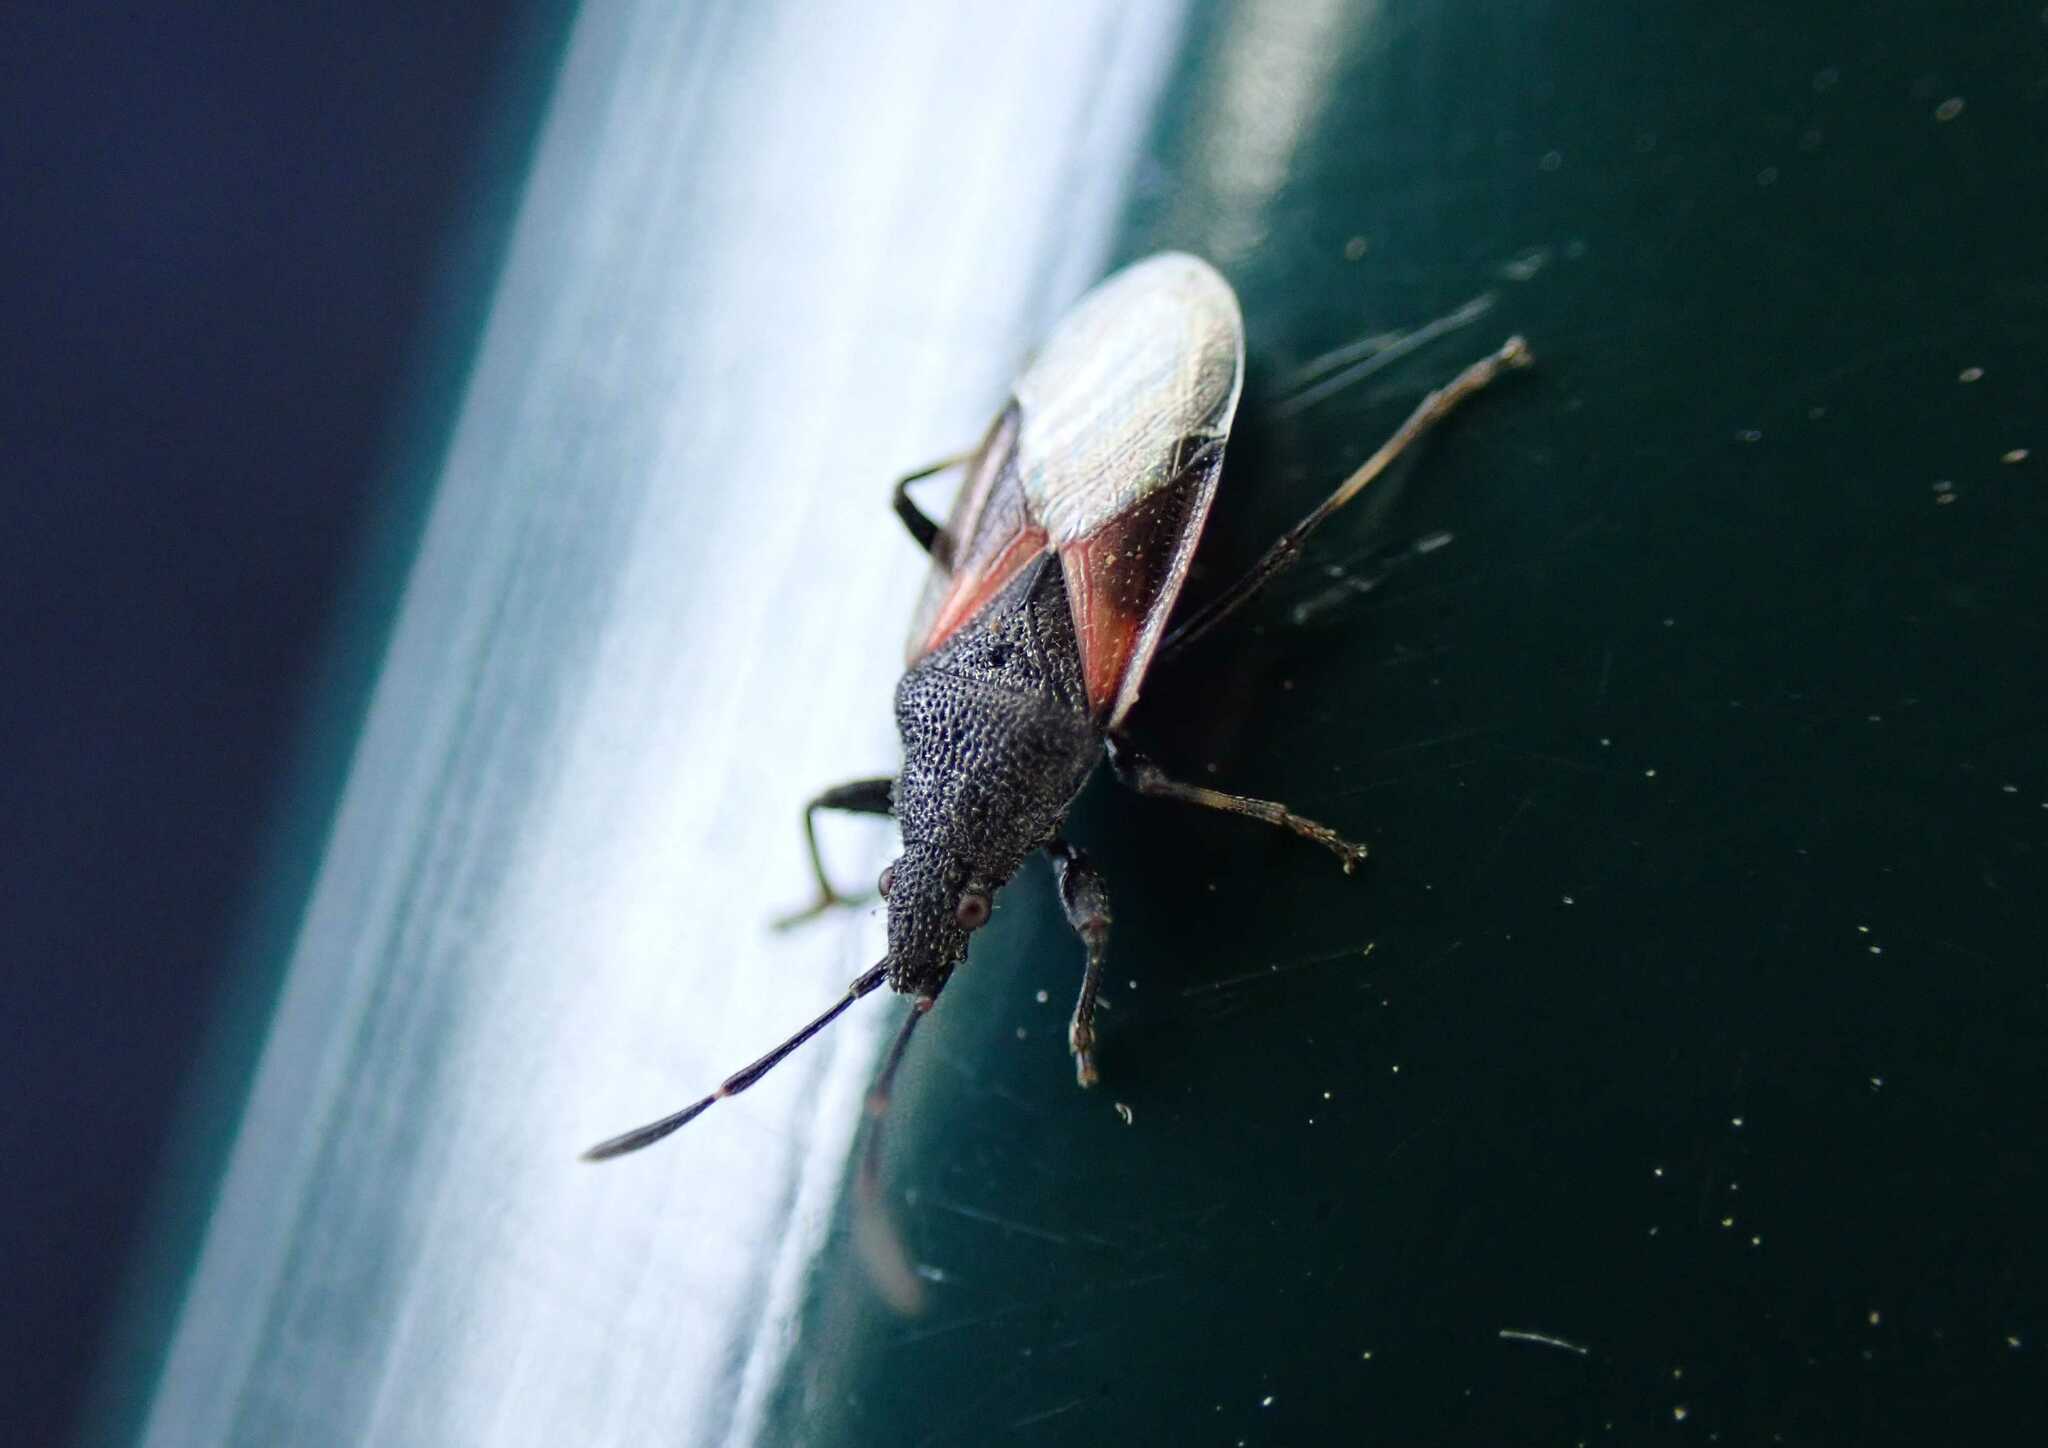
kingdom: Animalia
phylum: Arthropoda
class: Insecta
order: Hemiptera
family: Oxycarenidae
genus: Oxycarenus
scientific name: Oxycarenus lavaterae
